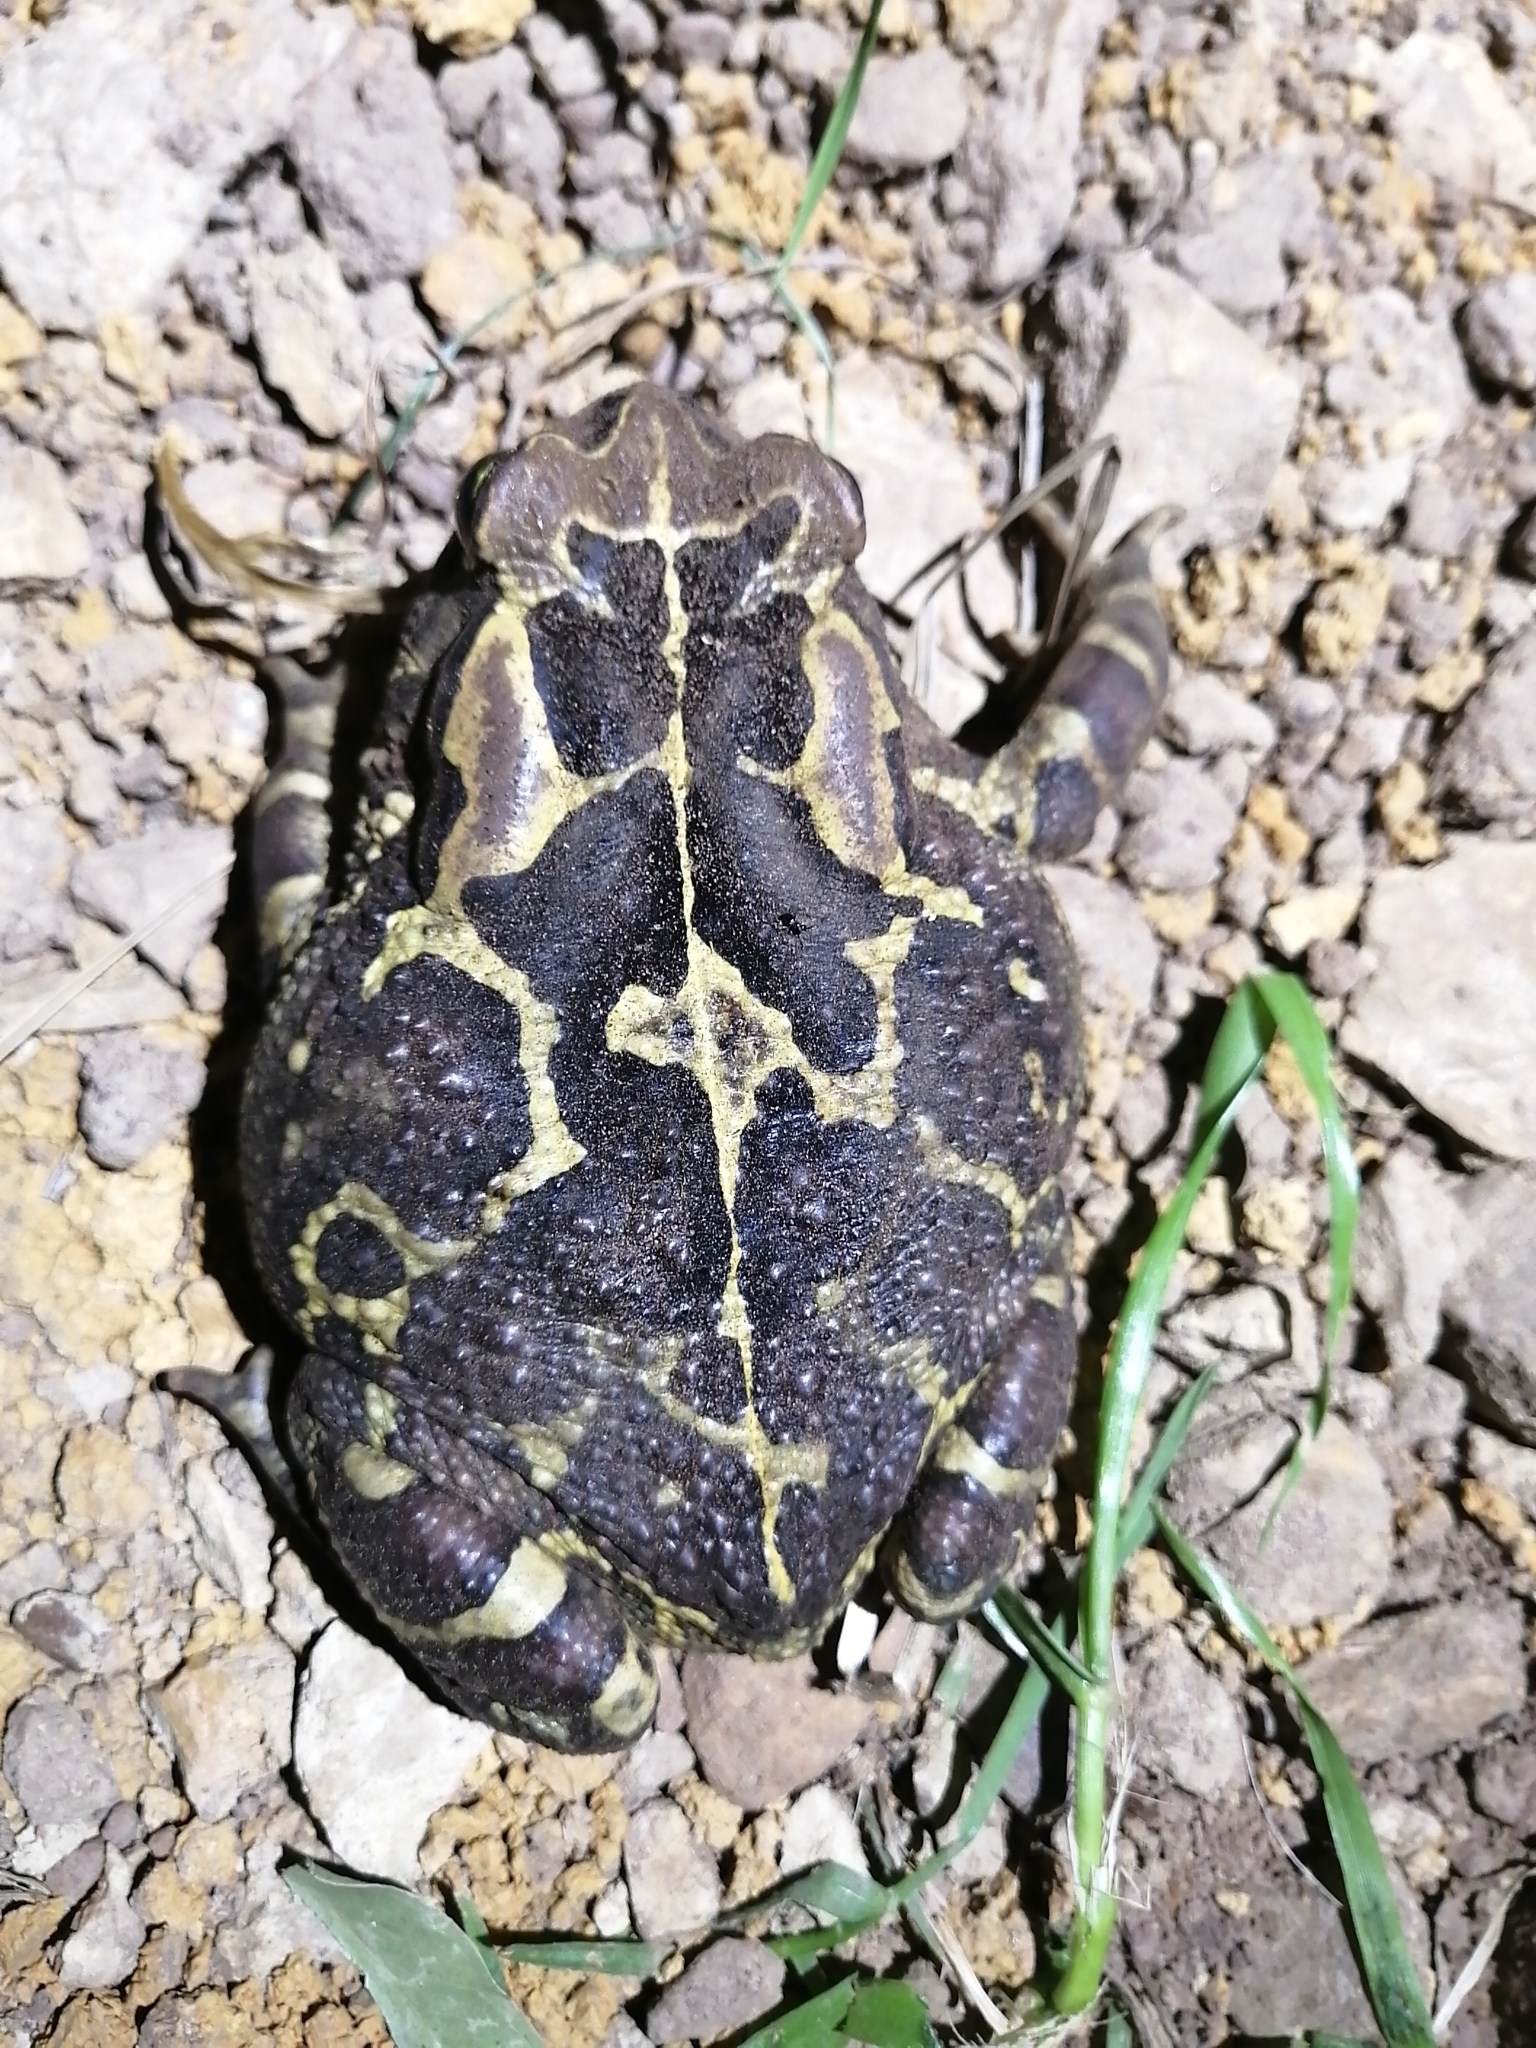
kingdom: Animalia
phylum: Chordata
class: Amphibia
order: Anura
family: Bufonidae
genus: Sclerophrys
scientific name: Sclerophrys pantherina
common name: Panther toad
